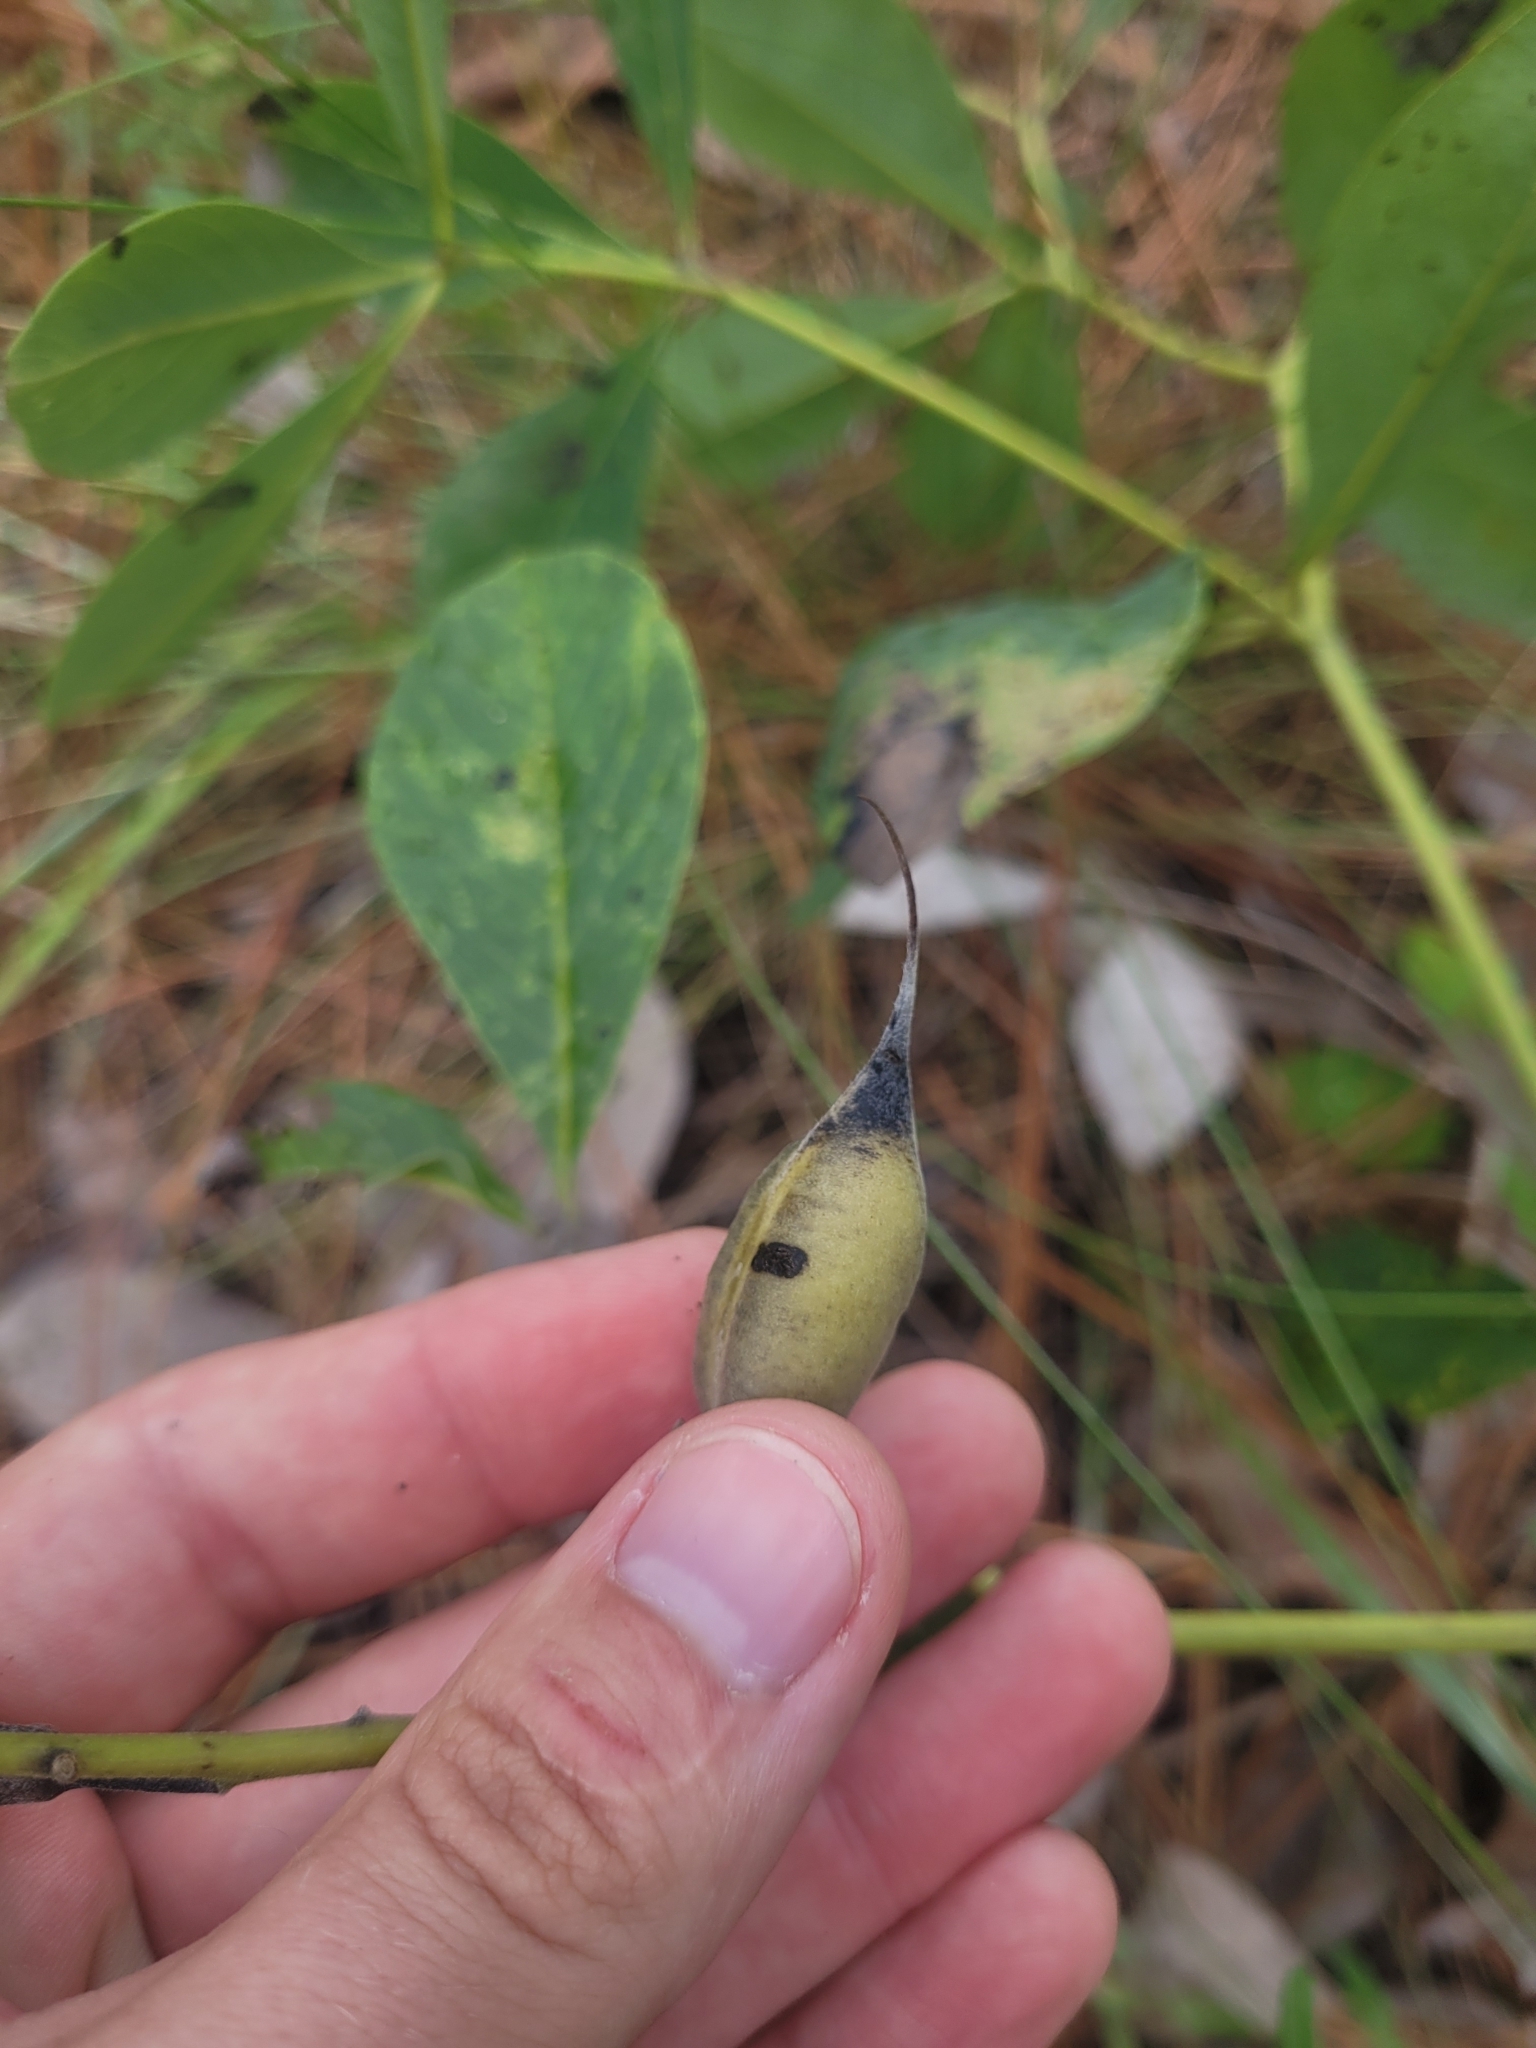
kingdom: Plantae
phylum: Tracheophyta
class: Magnoliopsida
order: Fabales
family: Fabaceae
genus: Baptisia
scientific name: Baptisia cinerea
